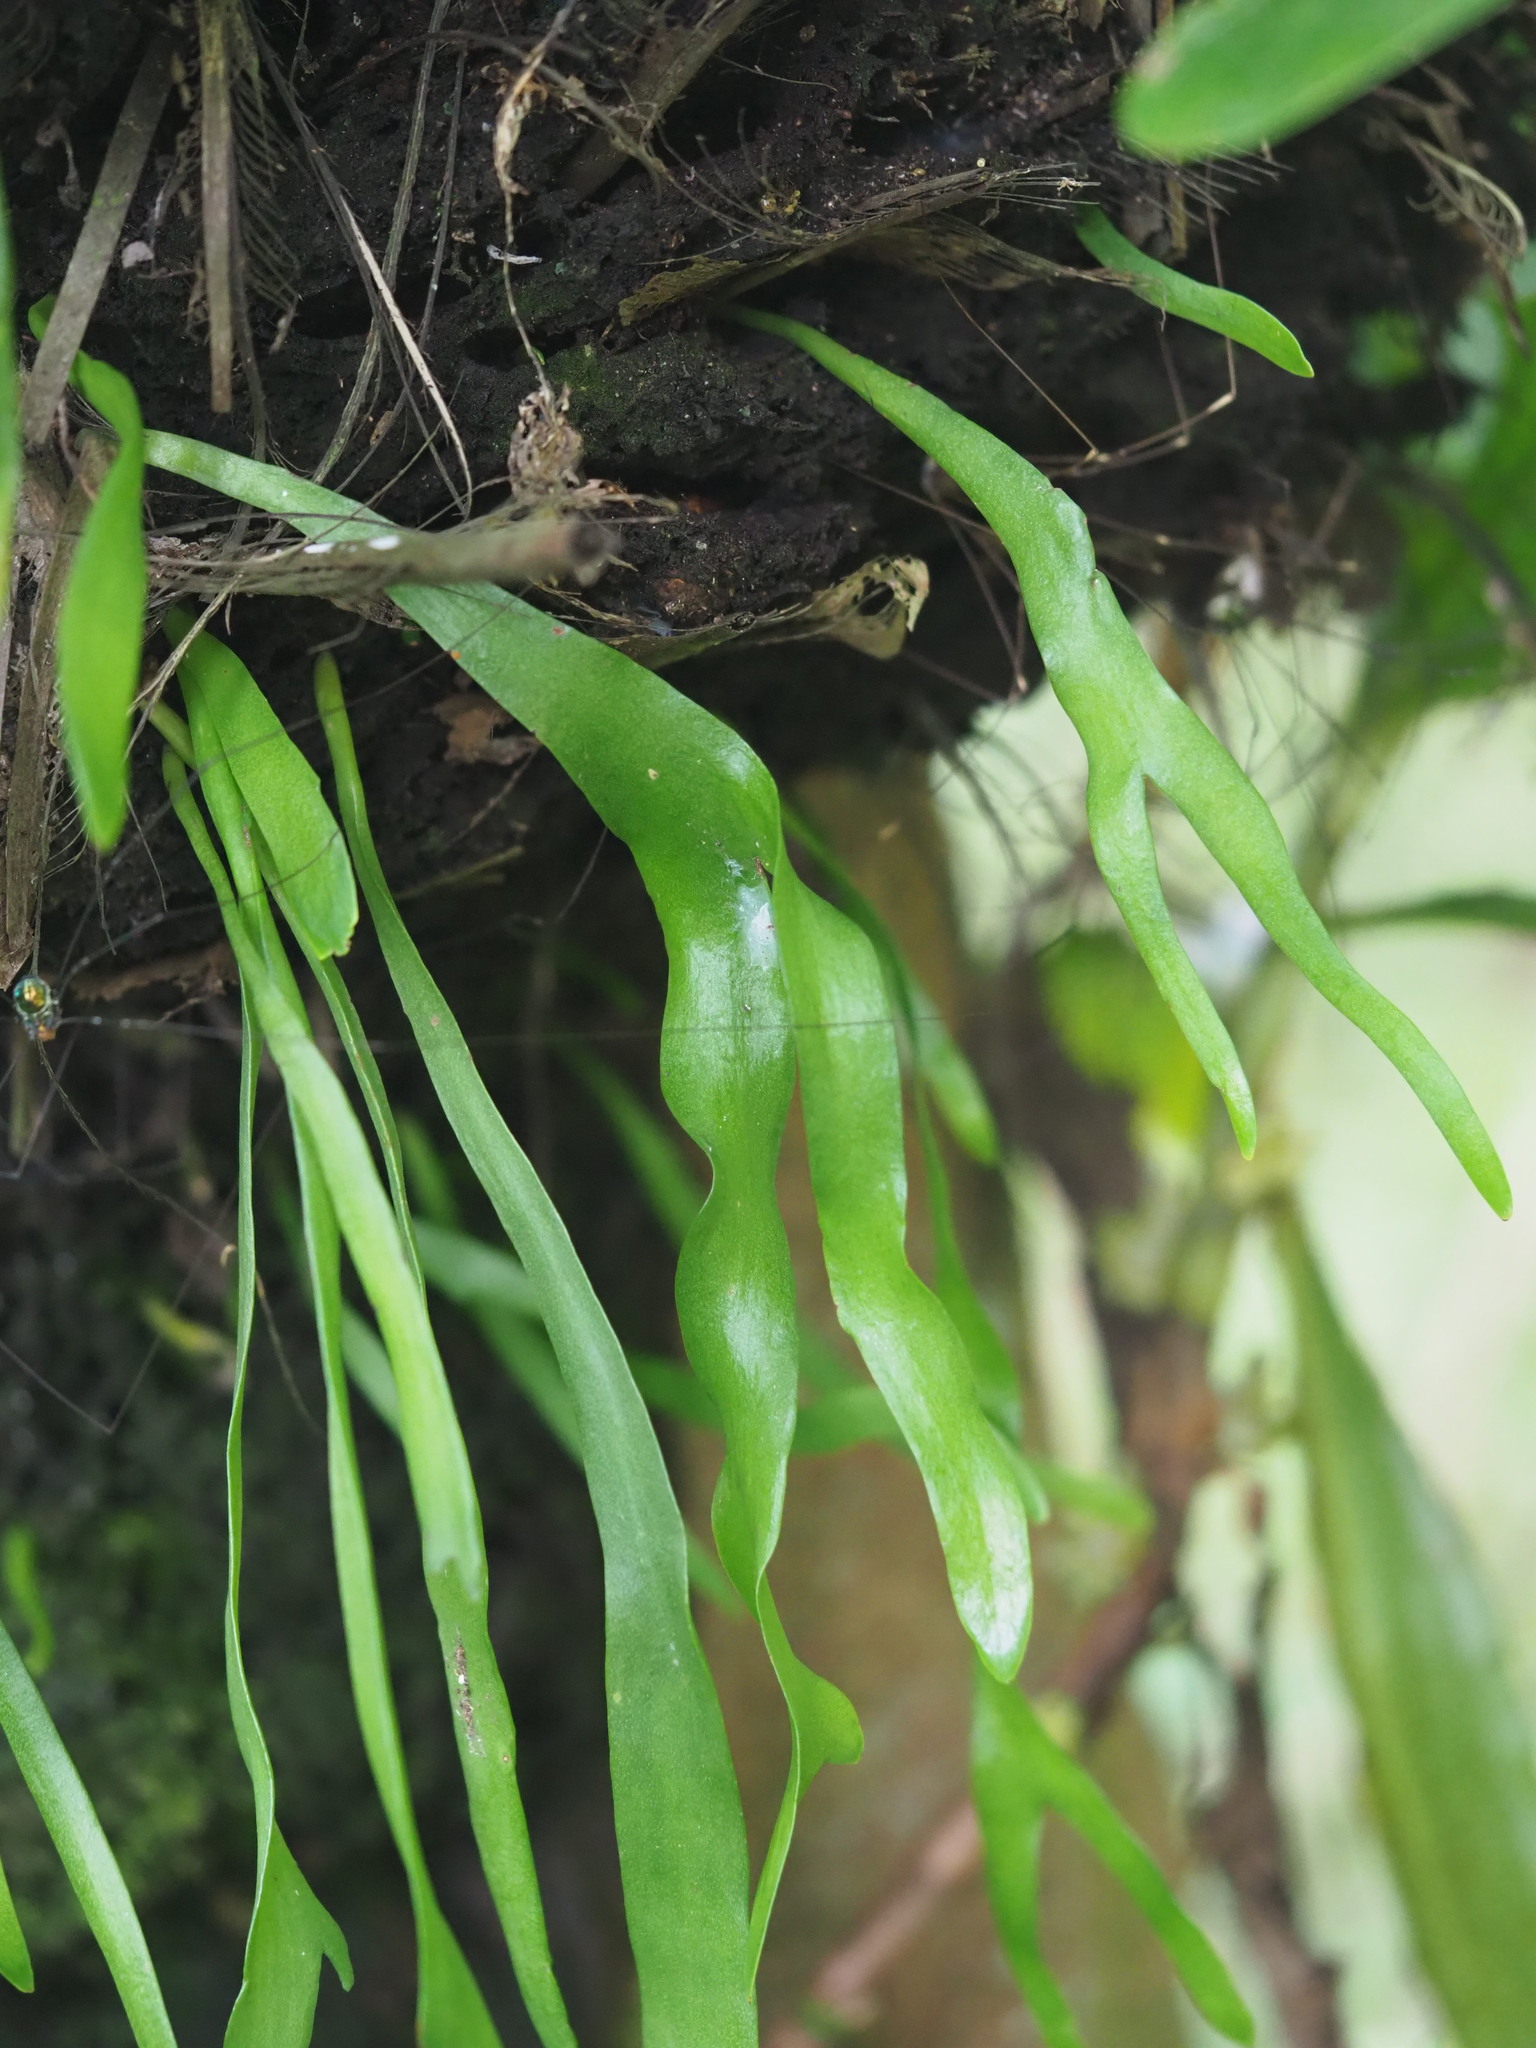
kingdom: Plantae
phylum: Tracheophyta
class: Polypodiopsida
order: Ophioglossales
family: Ophioglossaceae
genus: Ophioderma
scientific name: Ophioderma pendulum
